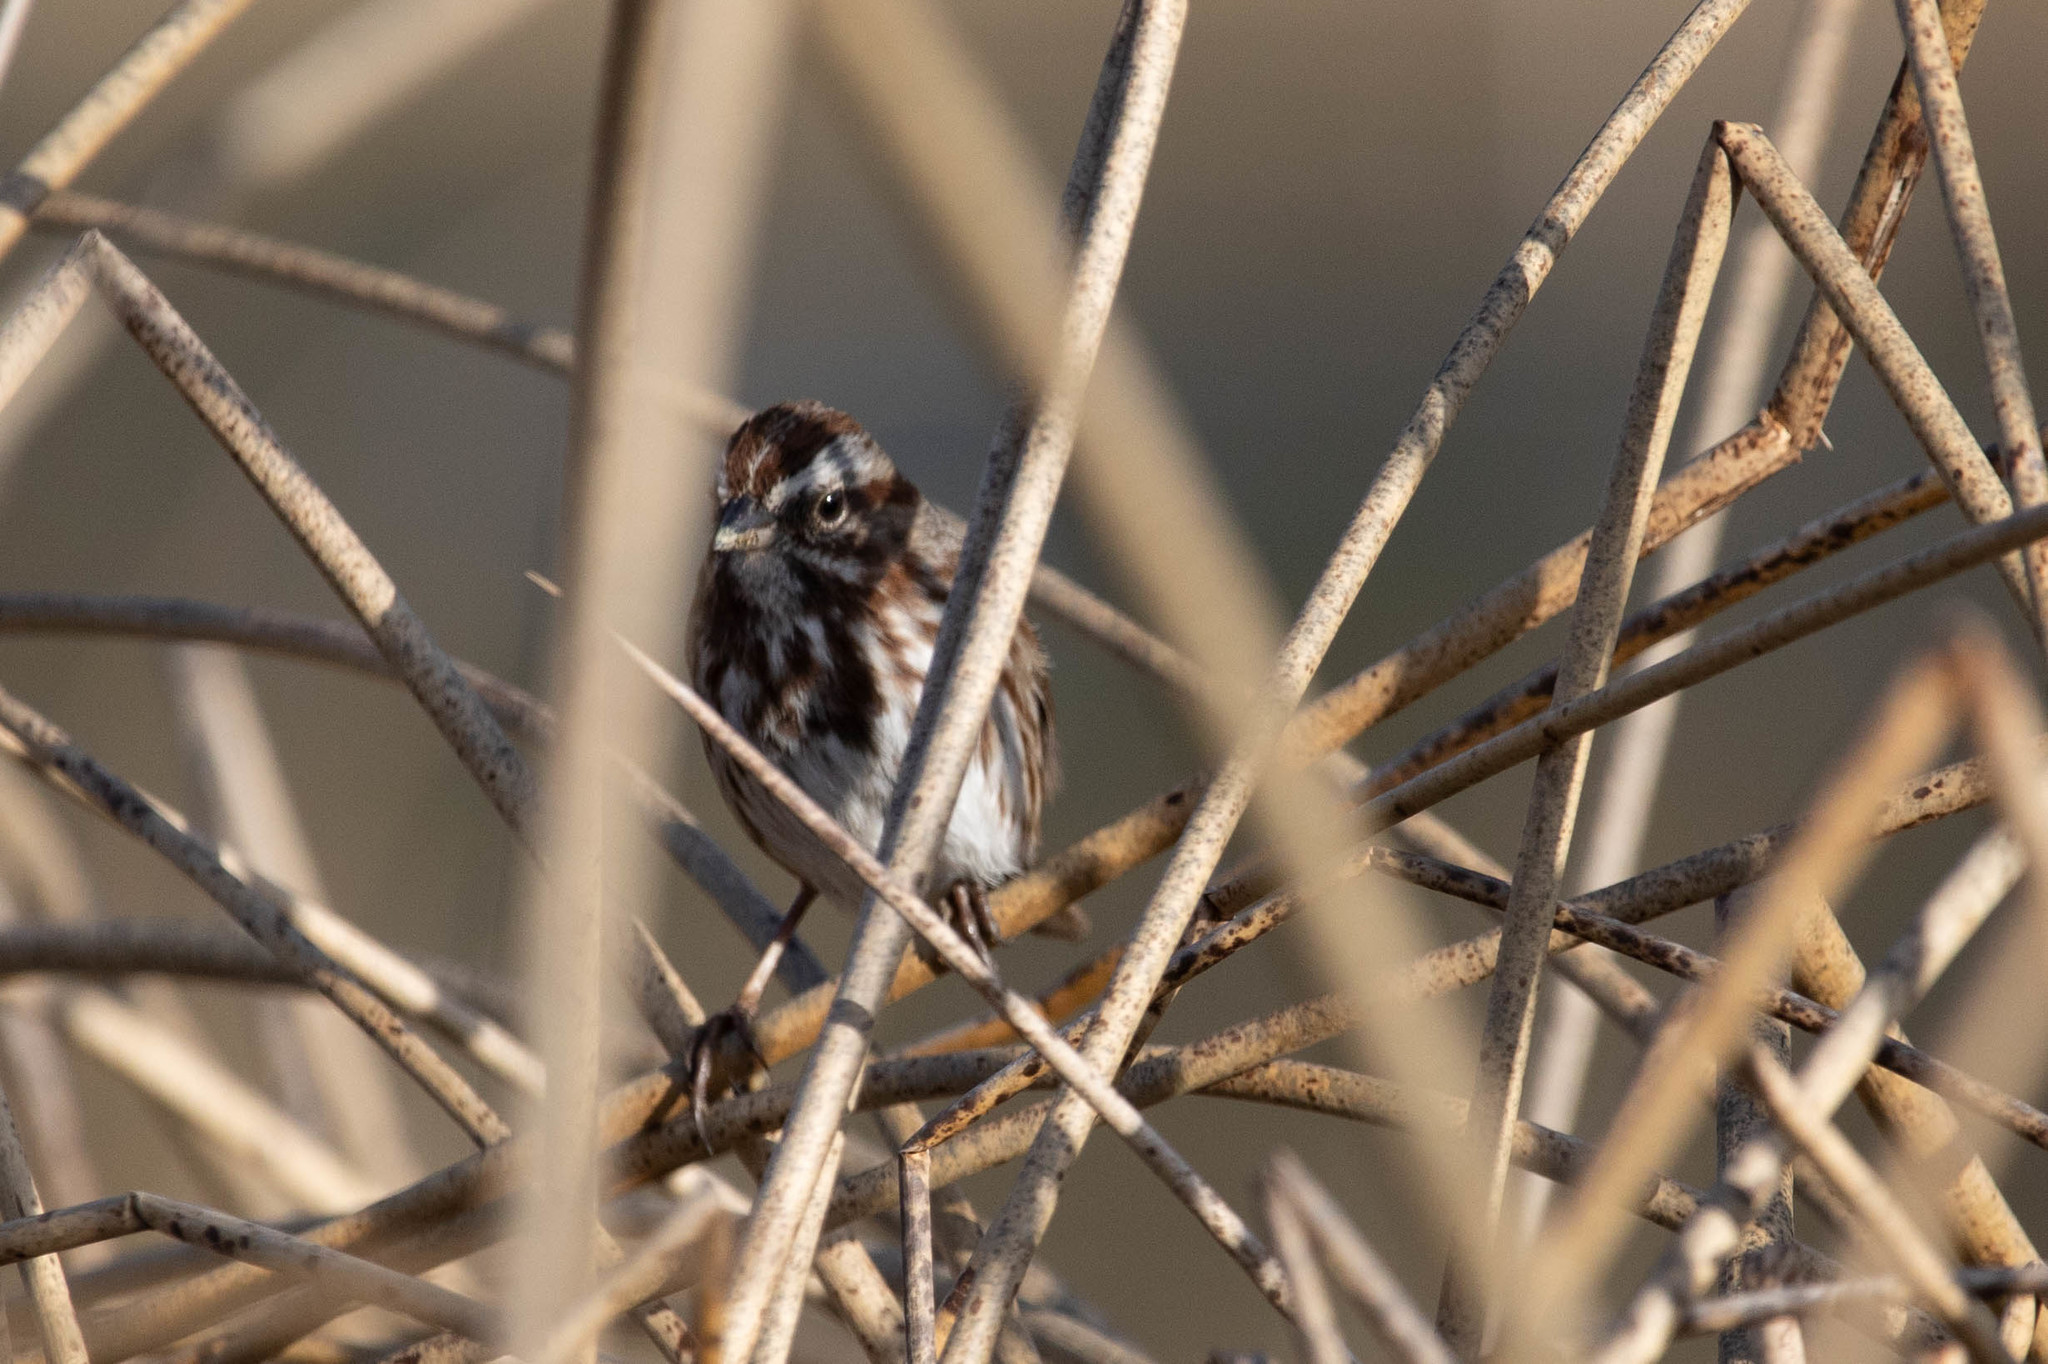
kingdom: Animalia
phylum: Chordata
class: Aves
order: Passeriformes
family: Passerellidae
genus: Melospiza
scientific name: Melospiza melodia
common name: Song sparrow
